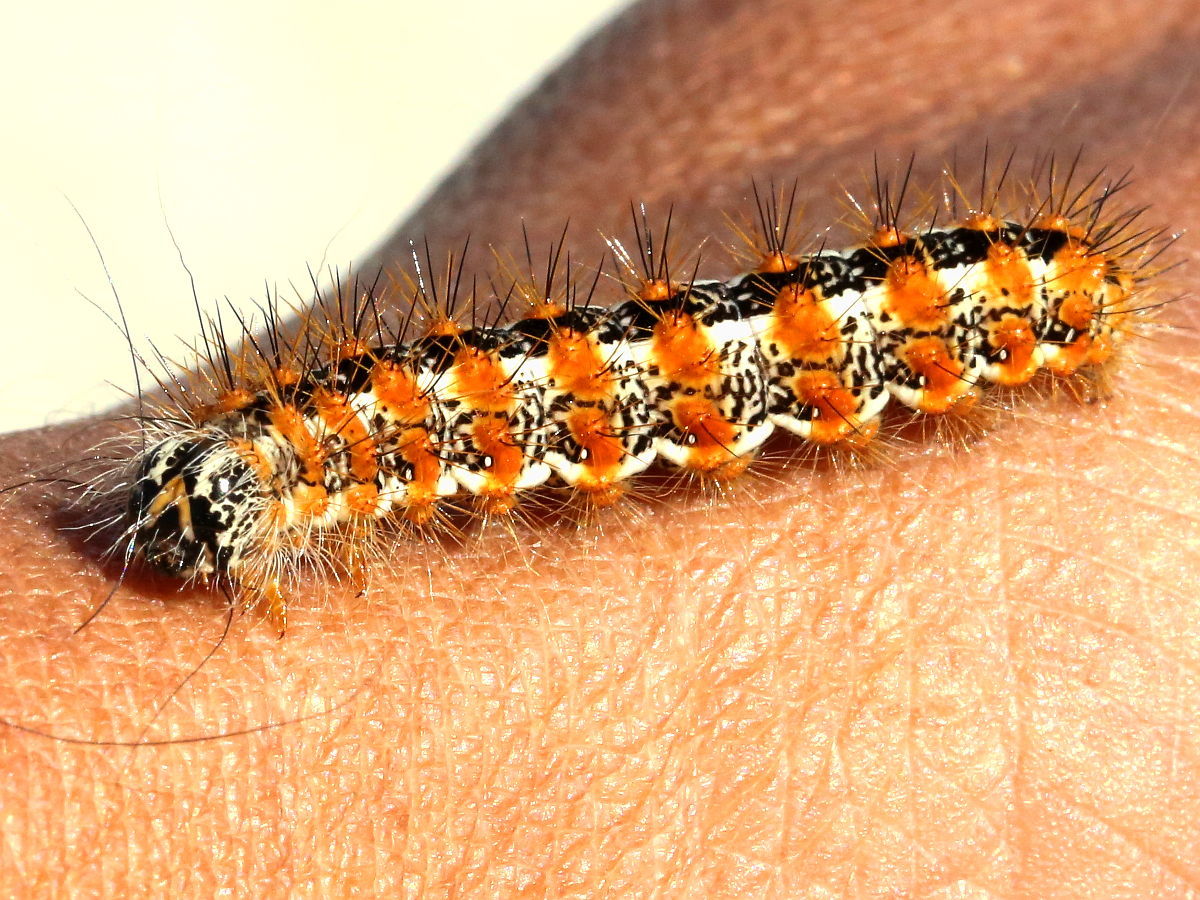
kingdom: Animalia
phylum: Arthropoda
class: Insecta
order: Lepidoptera
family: Noctuidae
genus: Acronicta
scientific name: Acronicta insularis
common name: Henry's marsh moth
